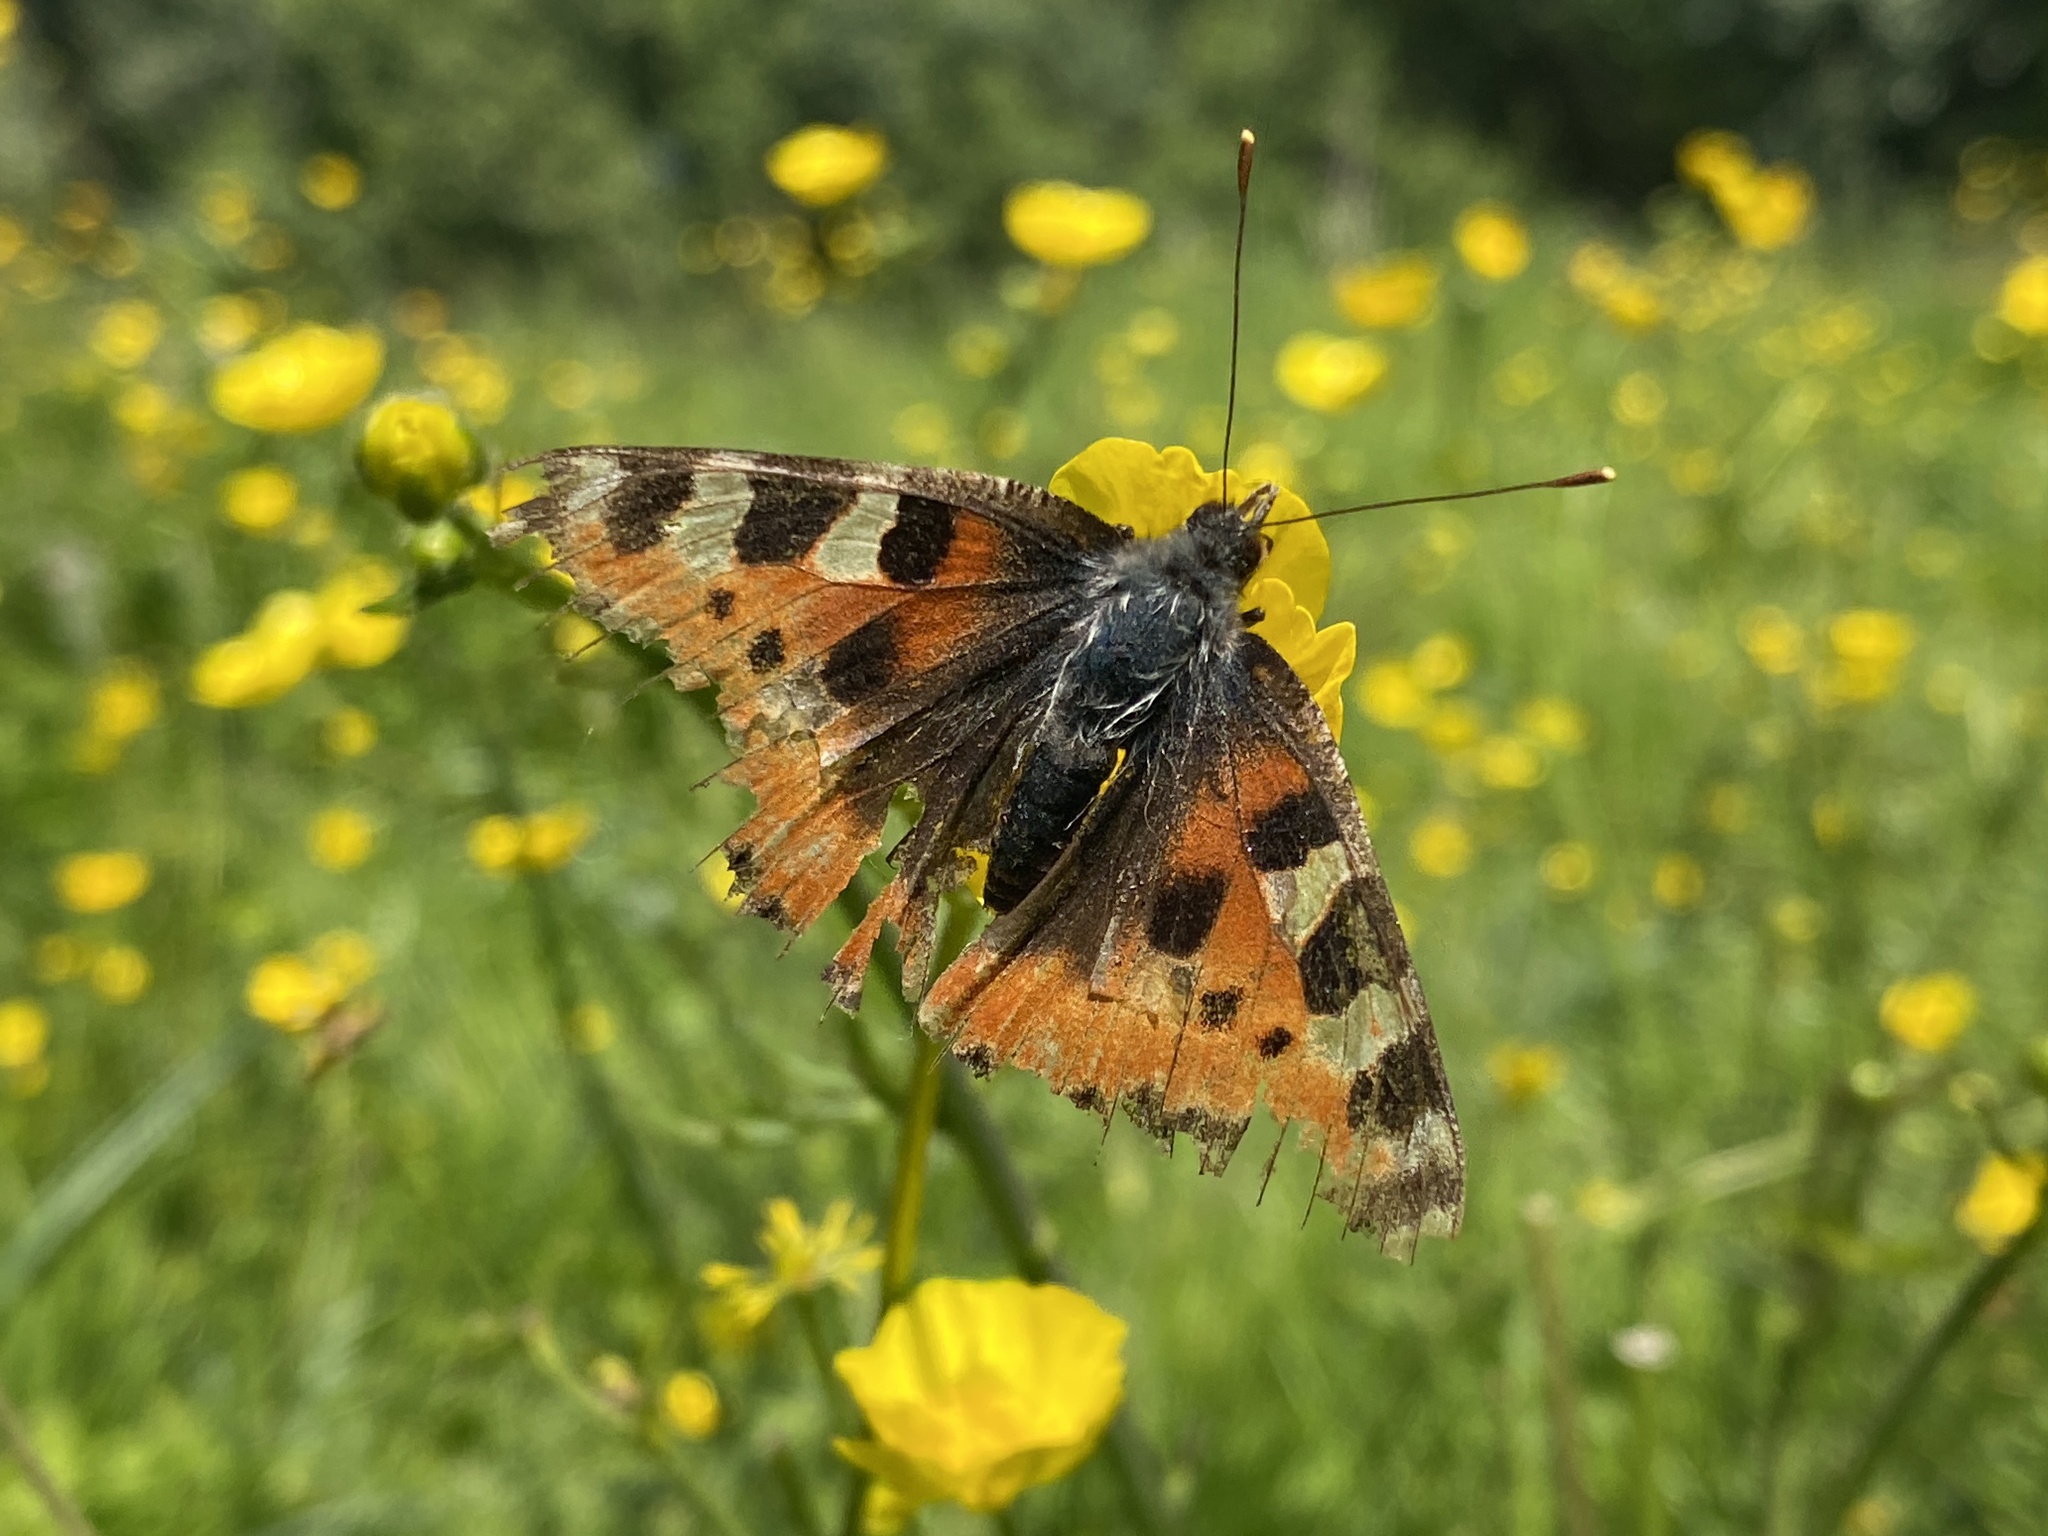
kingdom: Animalia
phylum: Arthropoda
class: Insecta
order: Lepidoptera
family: Nymphalidae
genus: Aglais
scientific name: Aglais urticae
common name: Small tortoiseshell
